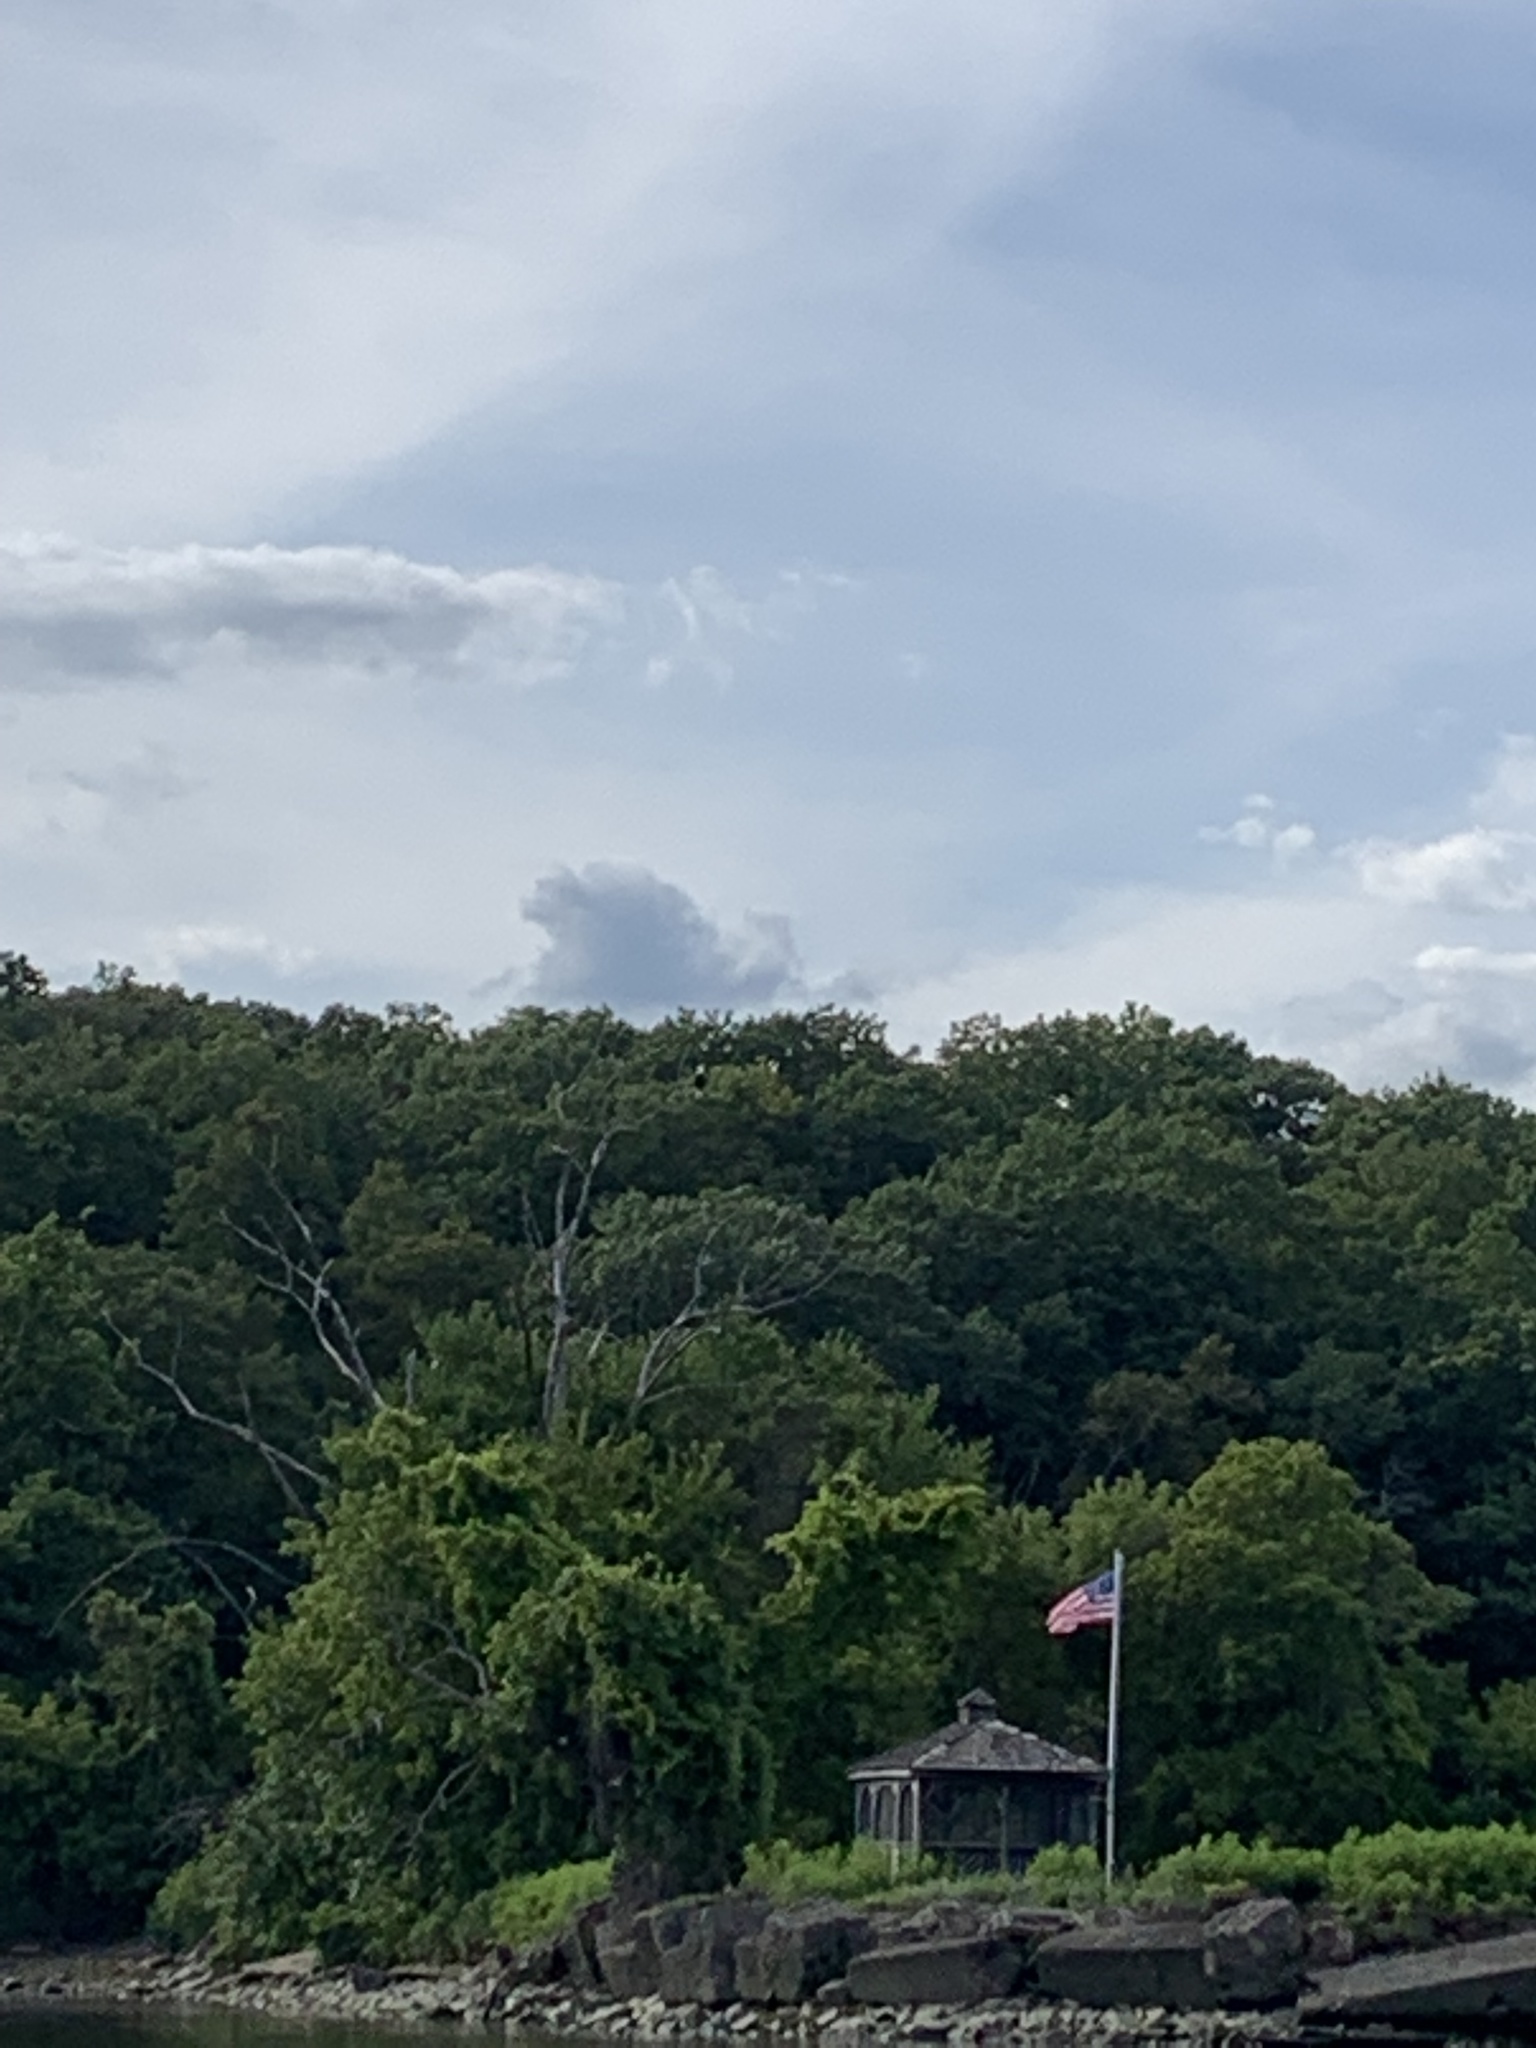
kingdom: Animalia
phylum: Chordata
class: Aves
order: Accipitriformes
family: Accipitridae
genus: Haliaeetus
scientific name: Haliaeetus leucocephalus
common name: Bald eagle
